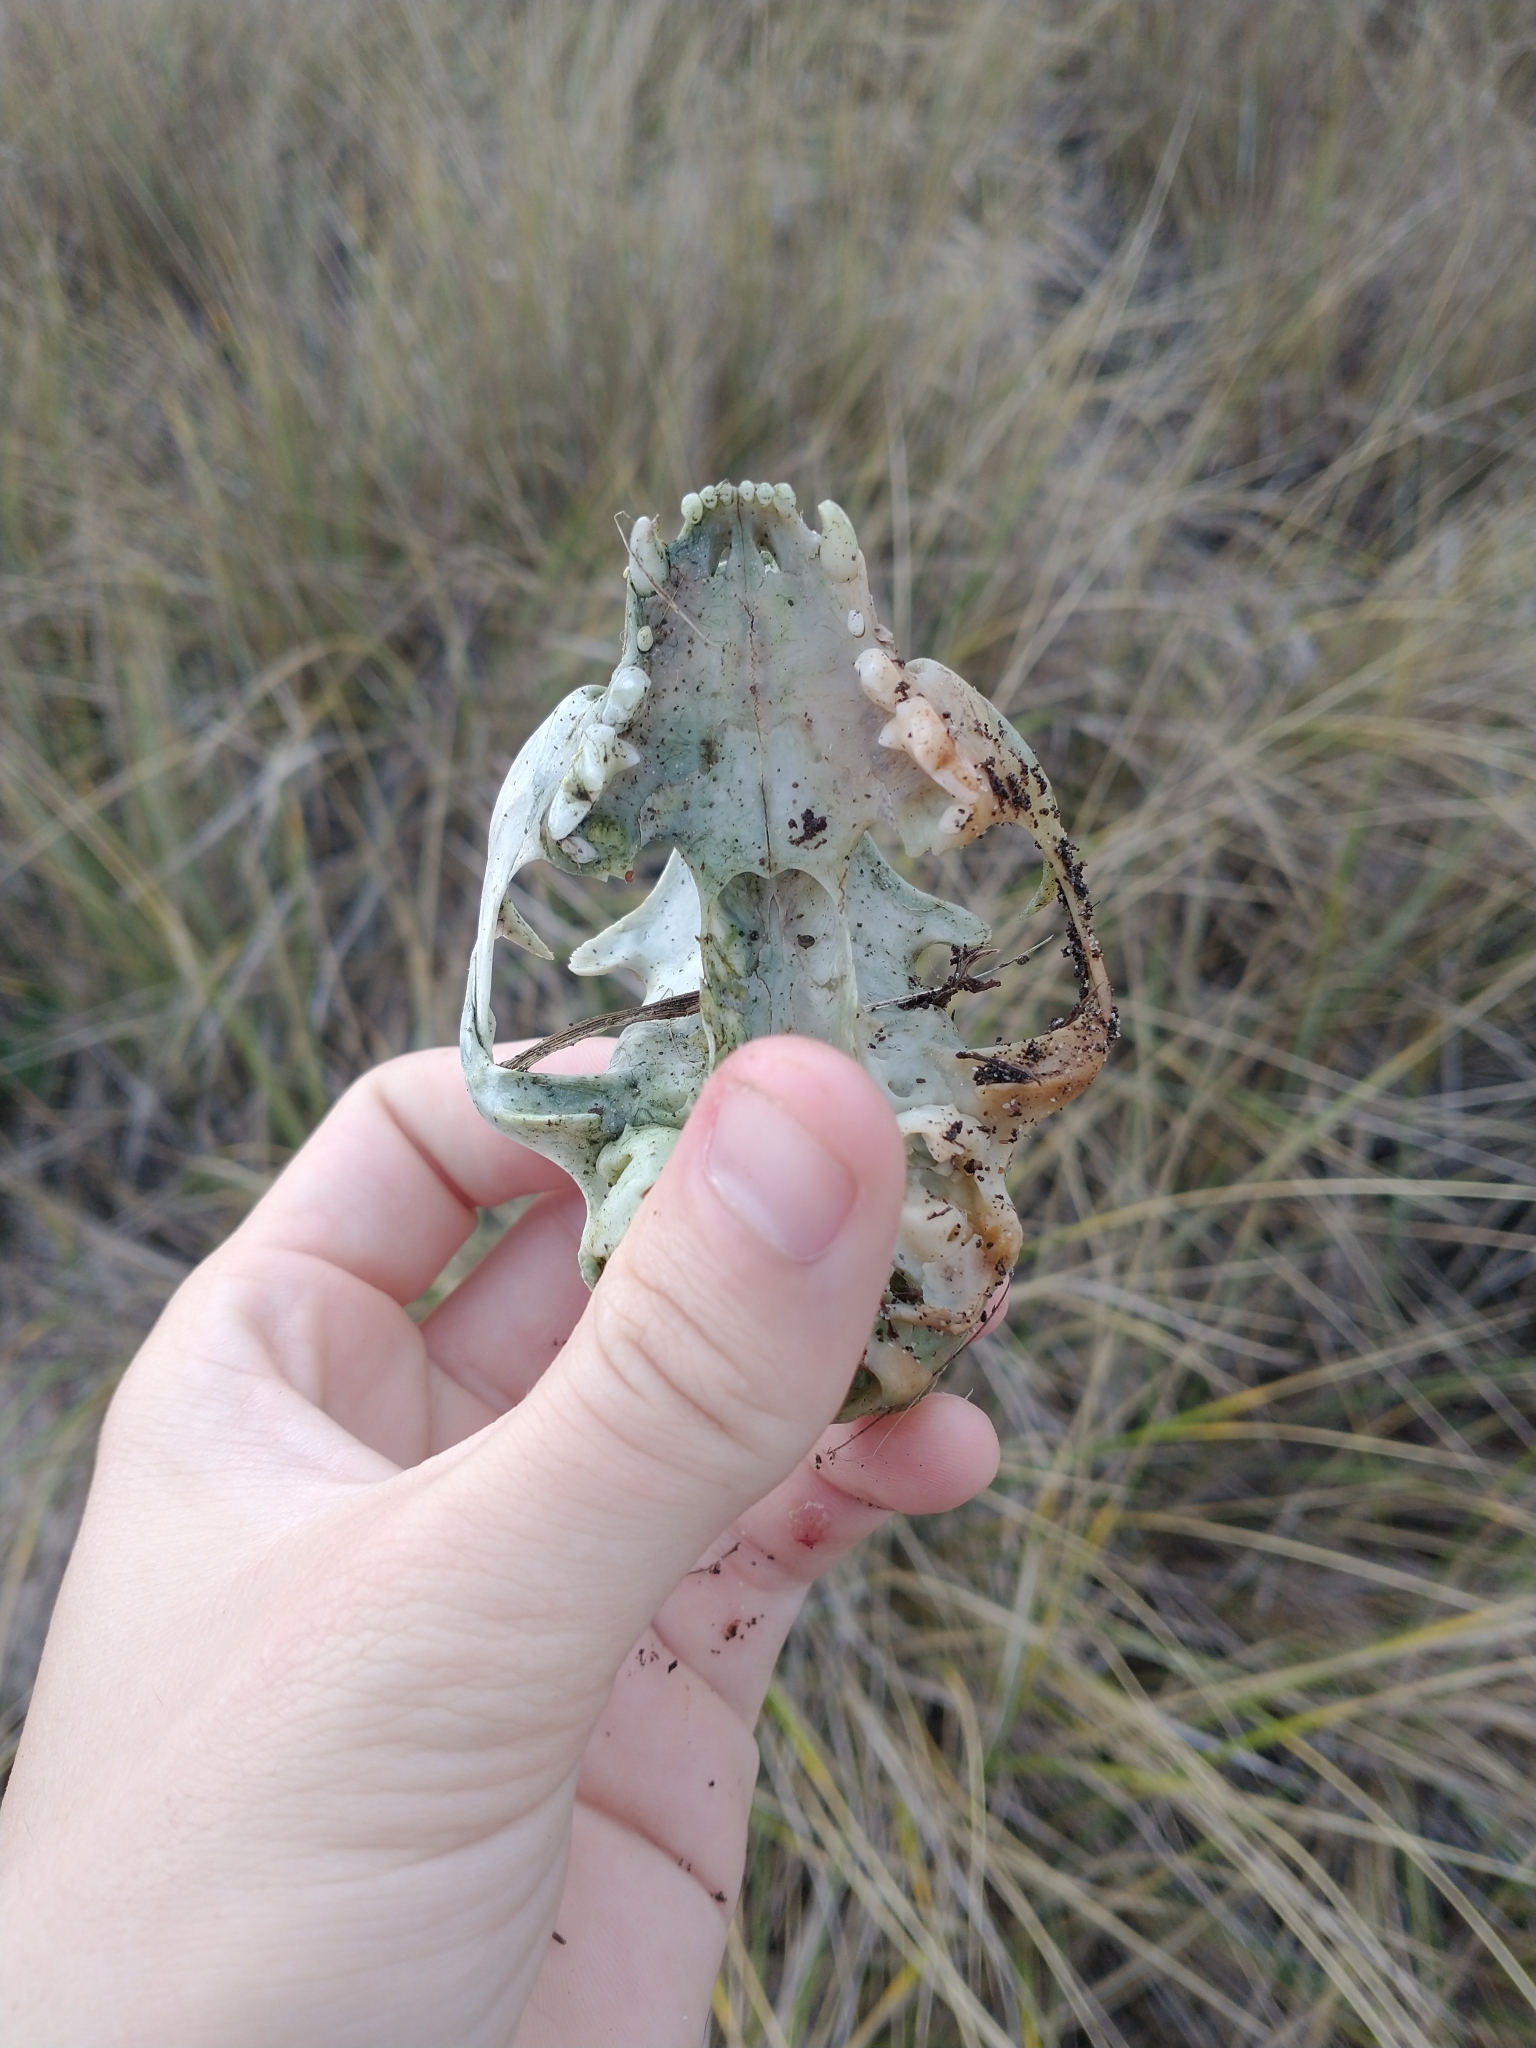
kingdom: Animalia
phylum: Chordata
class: Mammalia
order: Carnivora
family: Felidae
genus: Felis
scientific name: Felis catus
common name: Domestic cat
